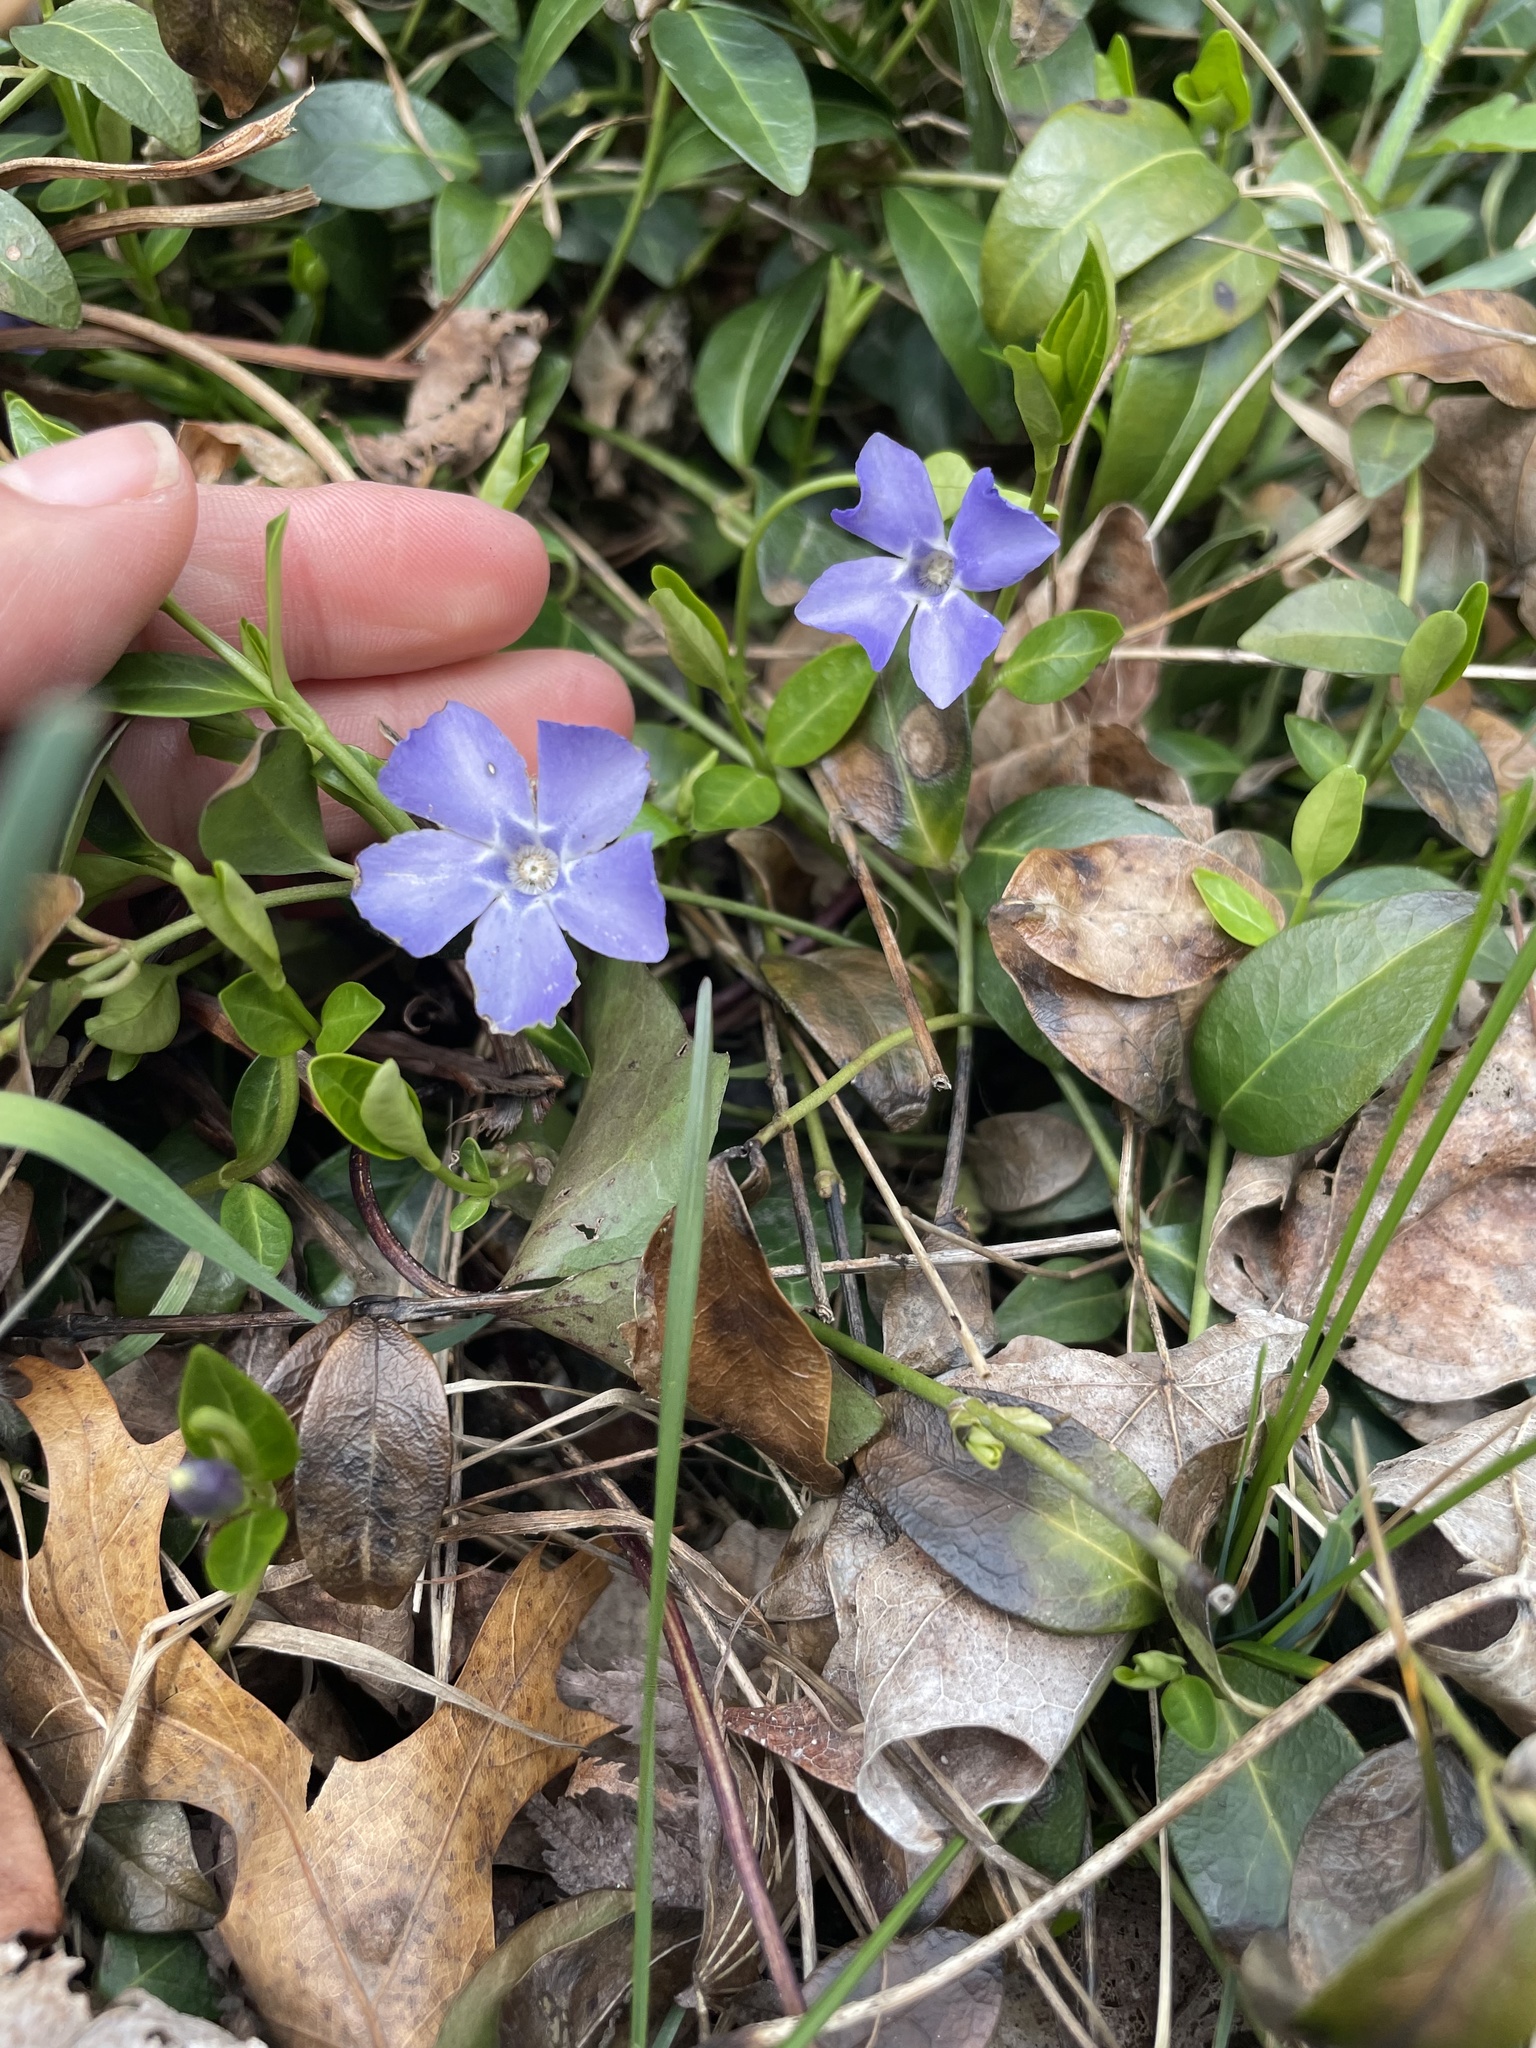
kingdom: Plantae
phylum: Tracheophyta
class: Magnoliopsida
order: Gentianales
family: Apocynaceae
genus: Vinca
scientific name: Vinca minor
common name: Lesser periwinkle
